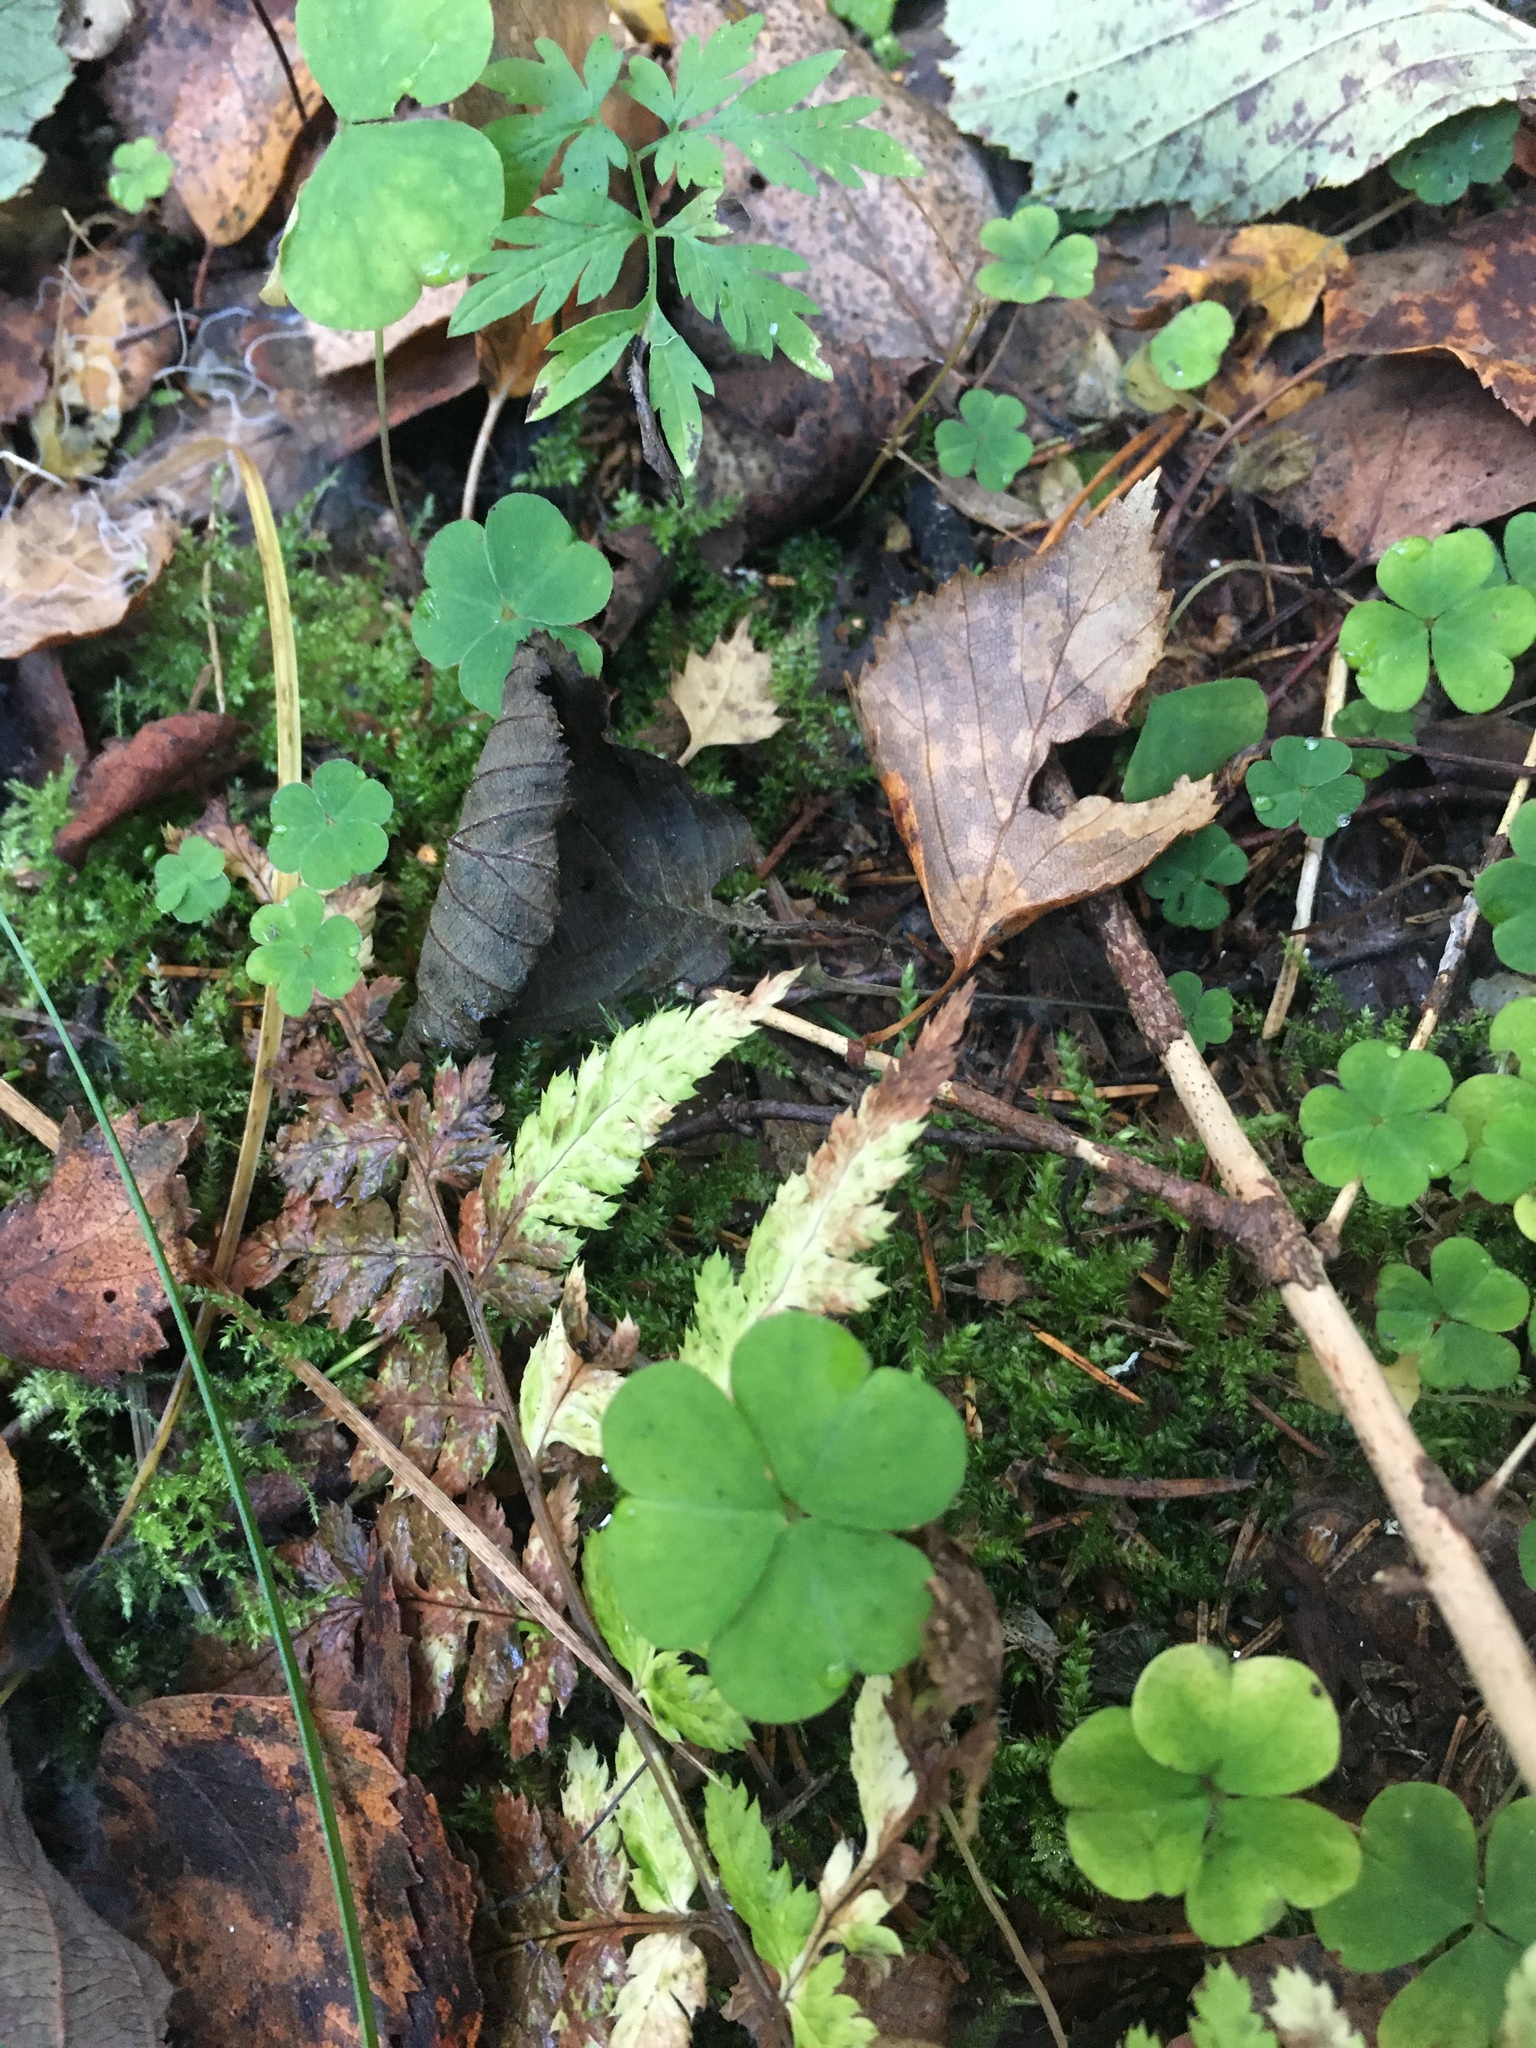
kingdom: Plantae
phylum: Tracheophyta
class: Magnoliopsida
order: Oxalidales
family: Oxalidaceae
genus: Oxalis
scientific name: Oxalis acetosella
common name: Wood-sorrel
